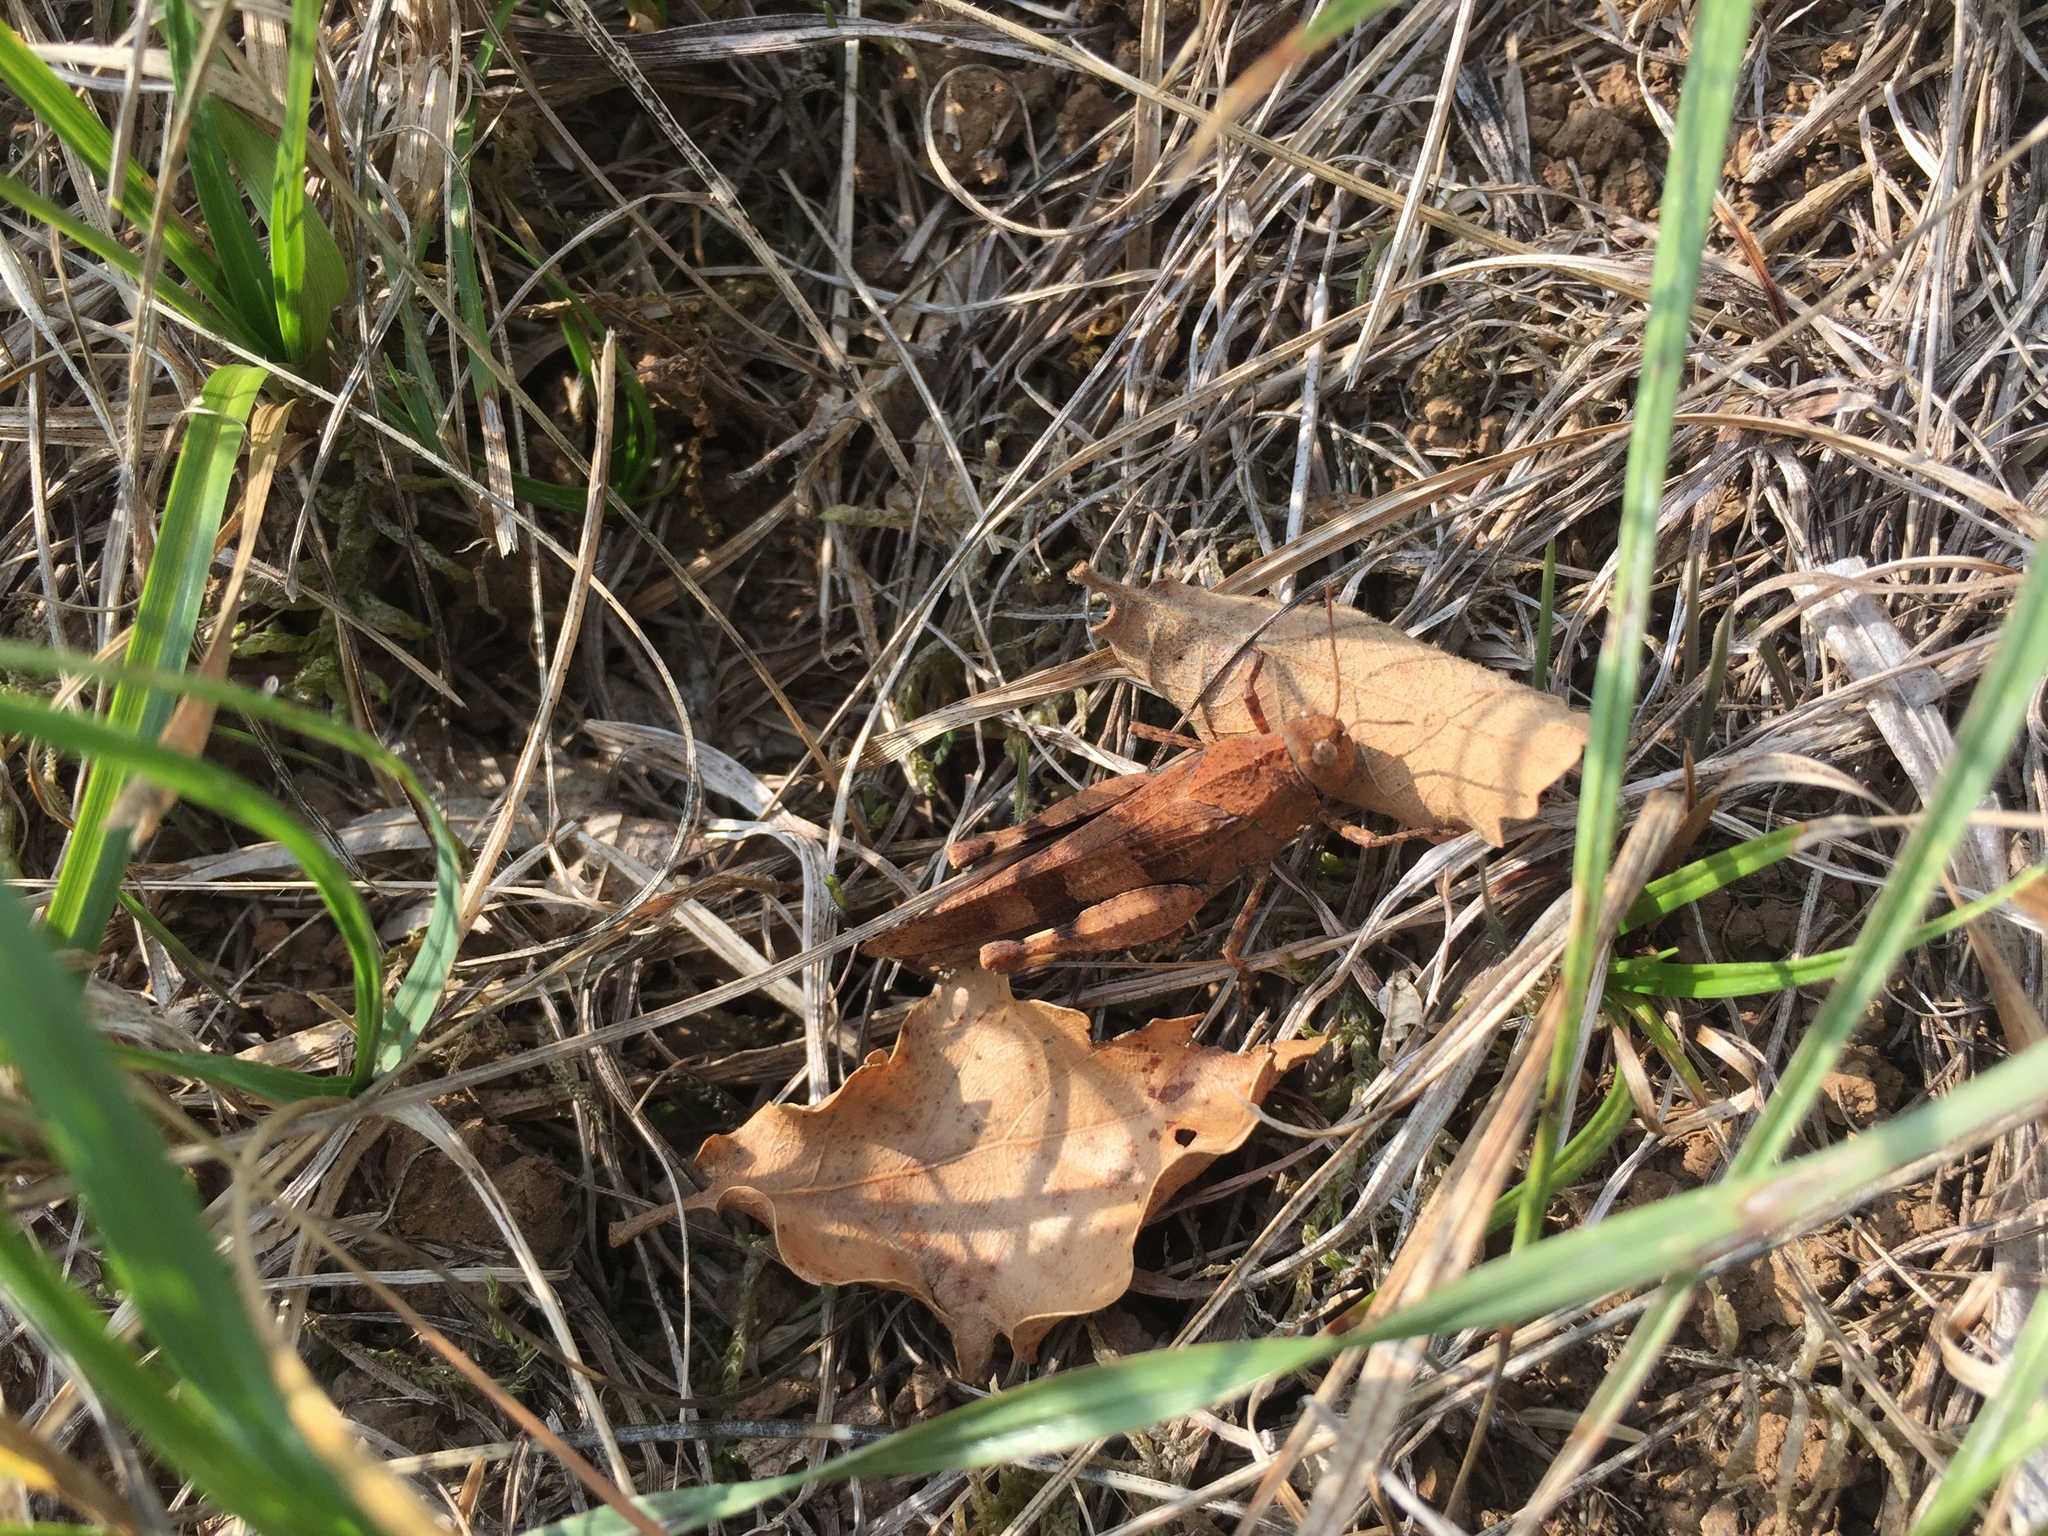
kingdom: Animalia
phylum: Arthropoda
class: Insecta
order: Orthoptera
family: Acrididae
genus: Oedipoda
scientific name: Oedipoda caerulescens
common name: Blue-winged grasshopper
